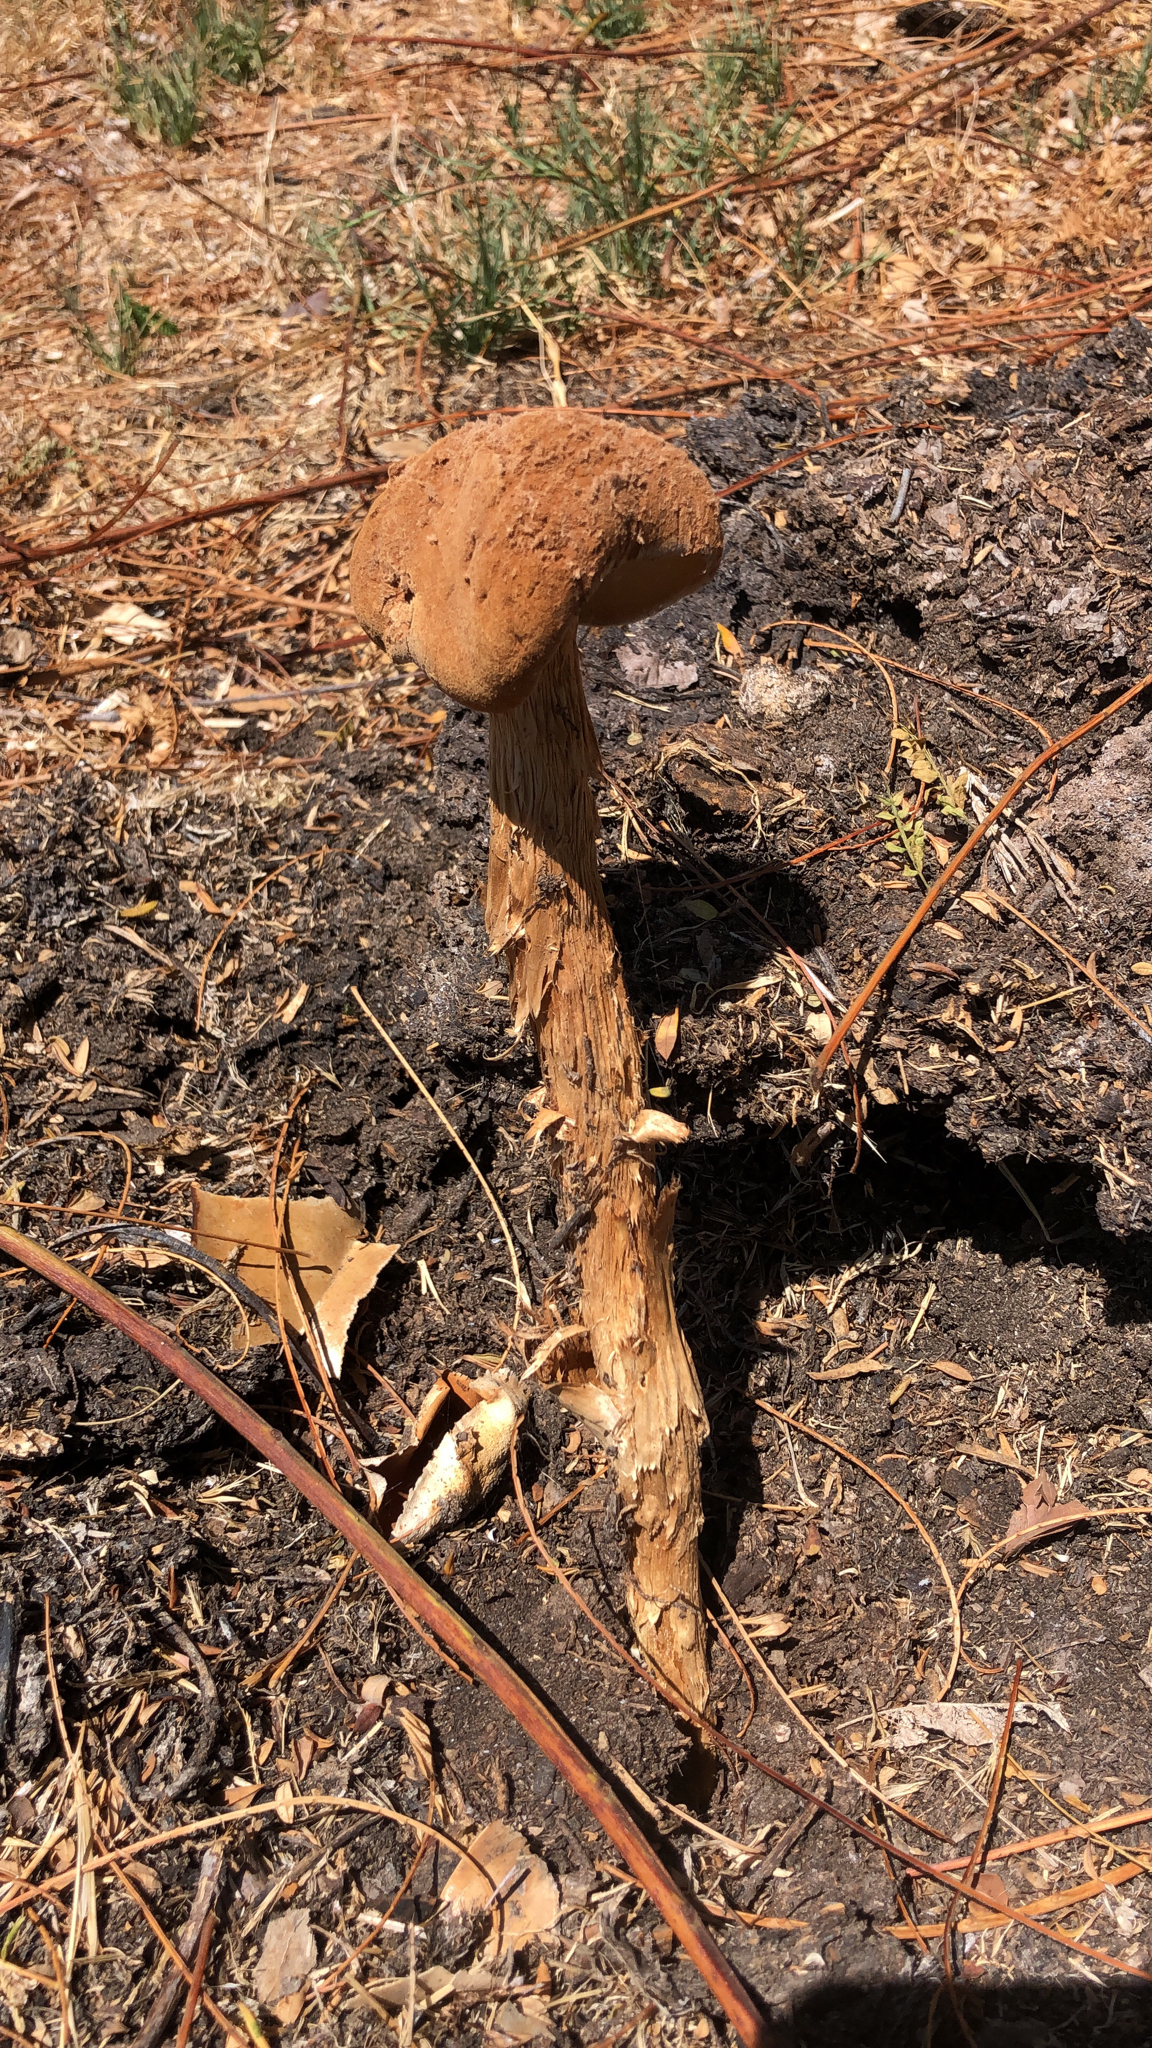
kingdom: Fungi
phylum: Basidiomycota
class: Agaricomycetes
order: Agaricales
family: Agaricaceae
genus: Battarrea
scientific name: Battarrea phalloides
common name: Sandy stiltball
